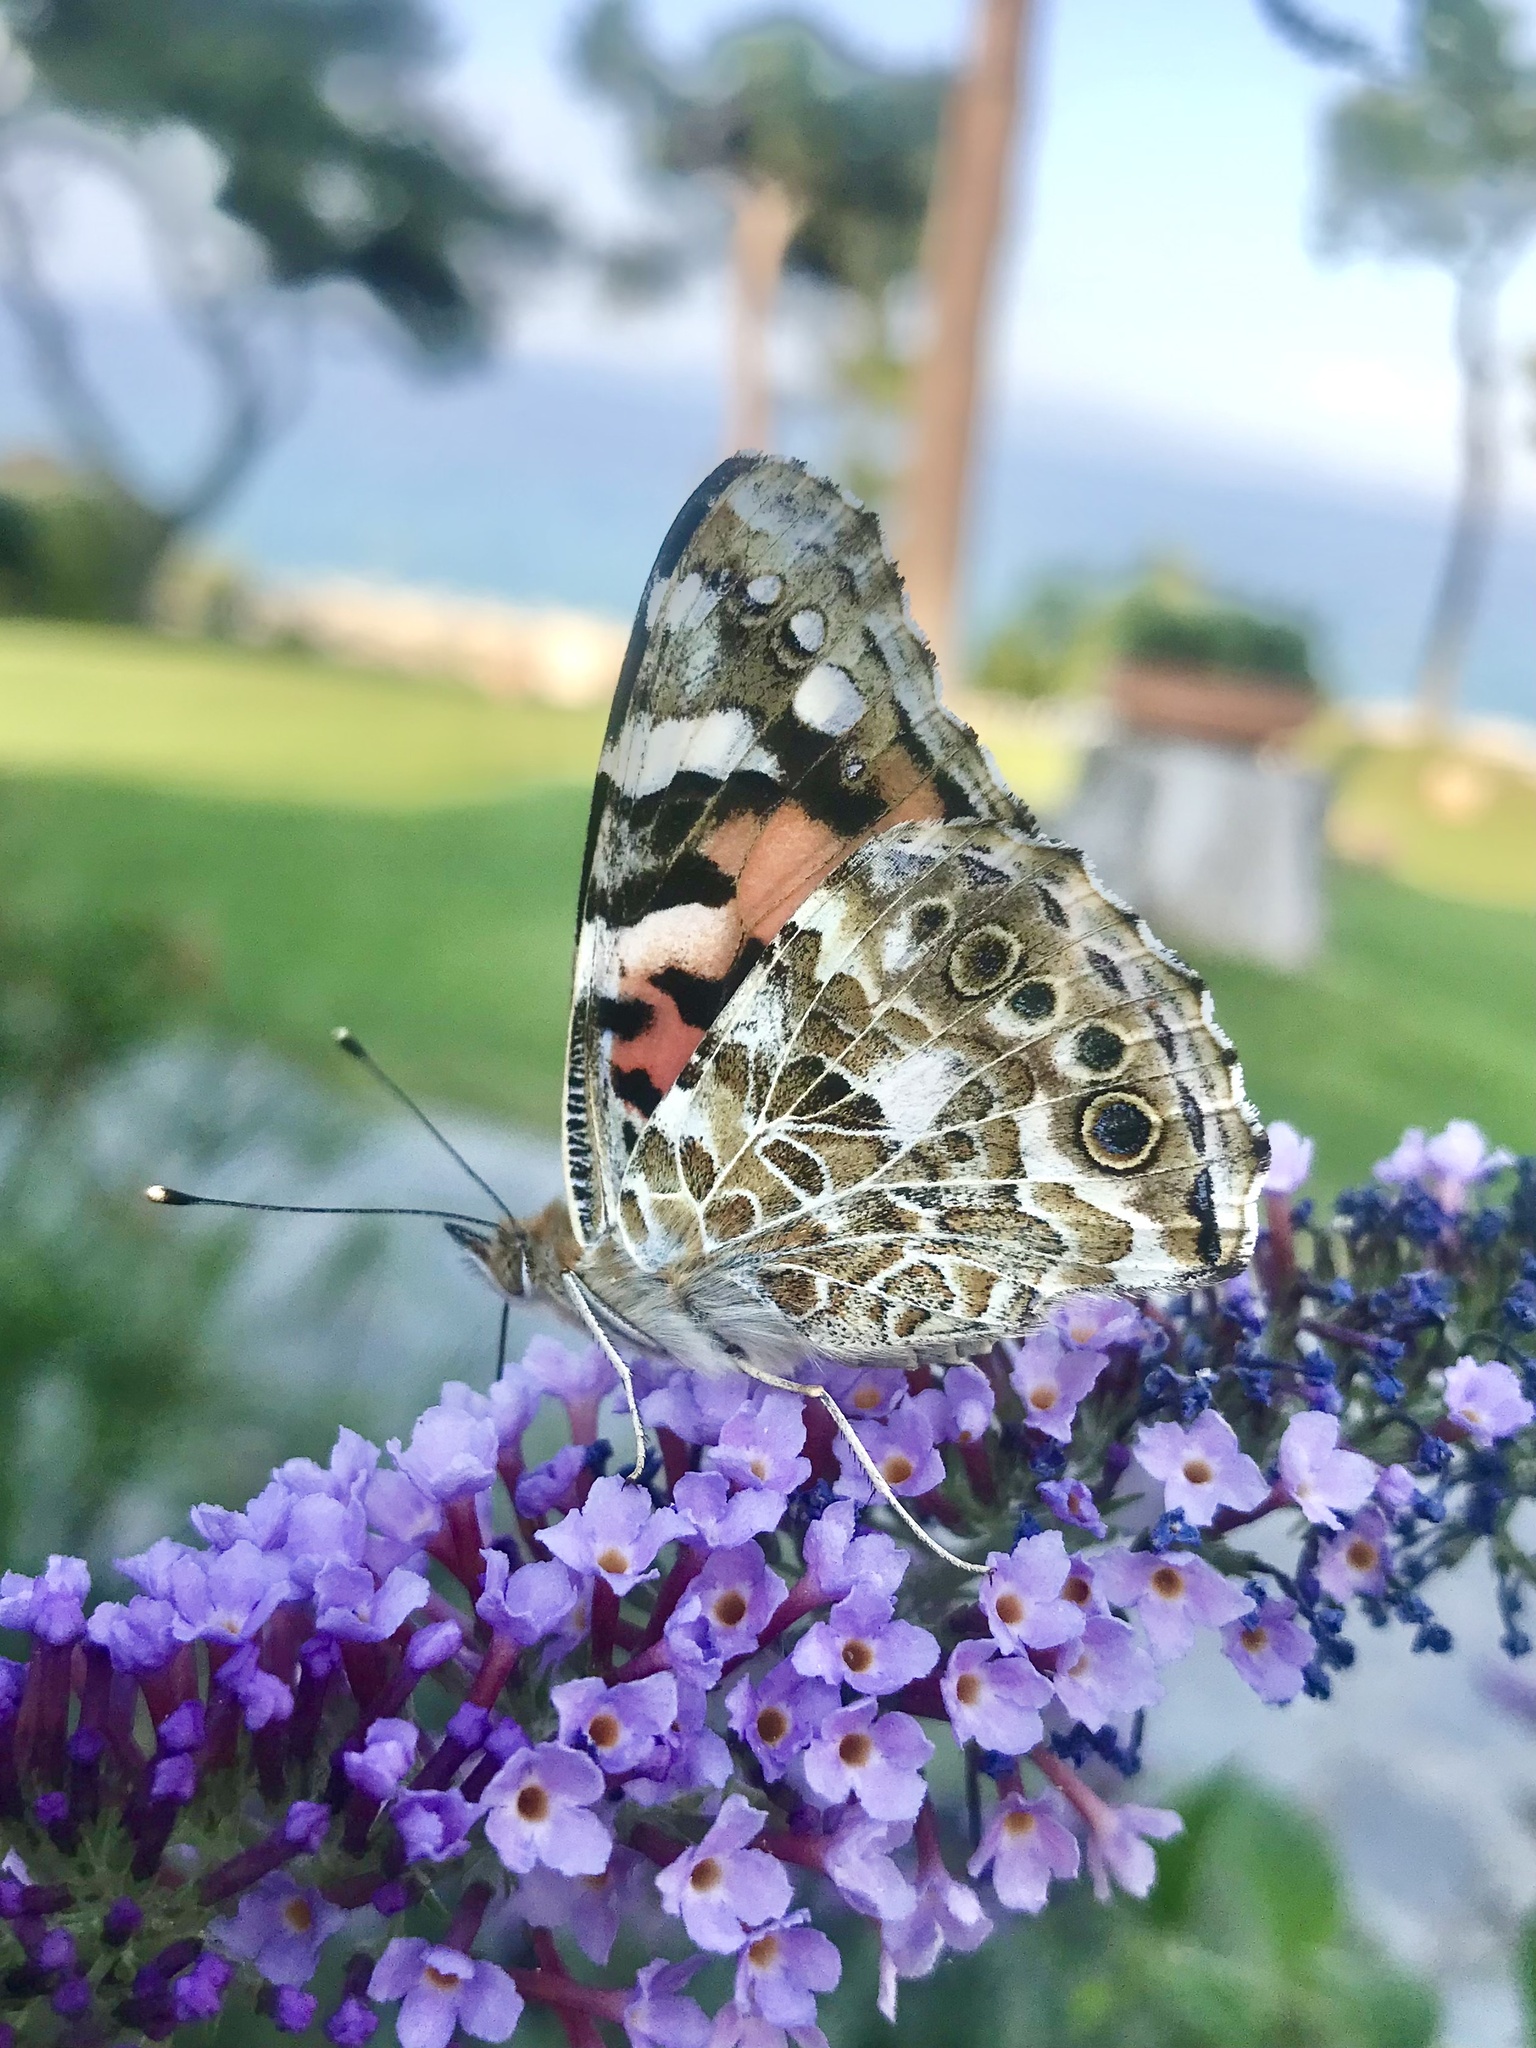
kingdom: Animalia
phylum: Arthropoda
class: Insecta
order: Lepidoptera
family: Nymphalidae
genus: Vanessa
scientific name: Vanessa cardui
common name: Painted lady
